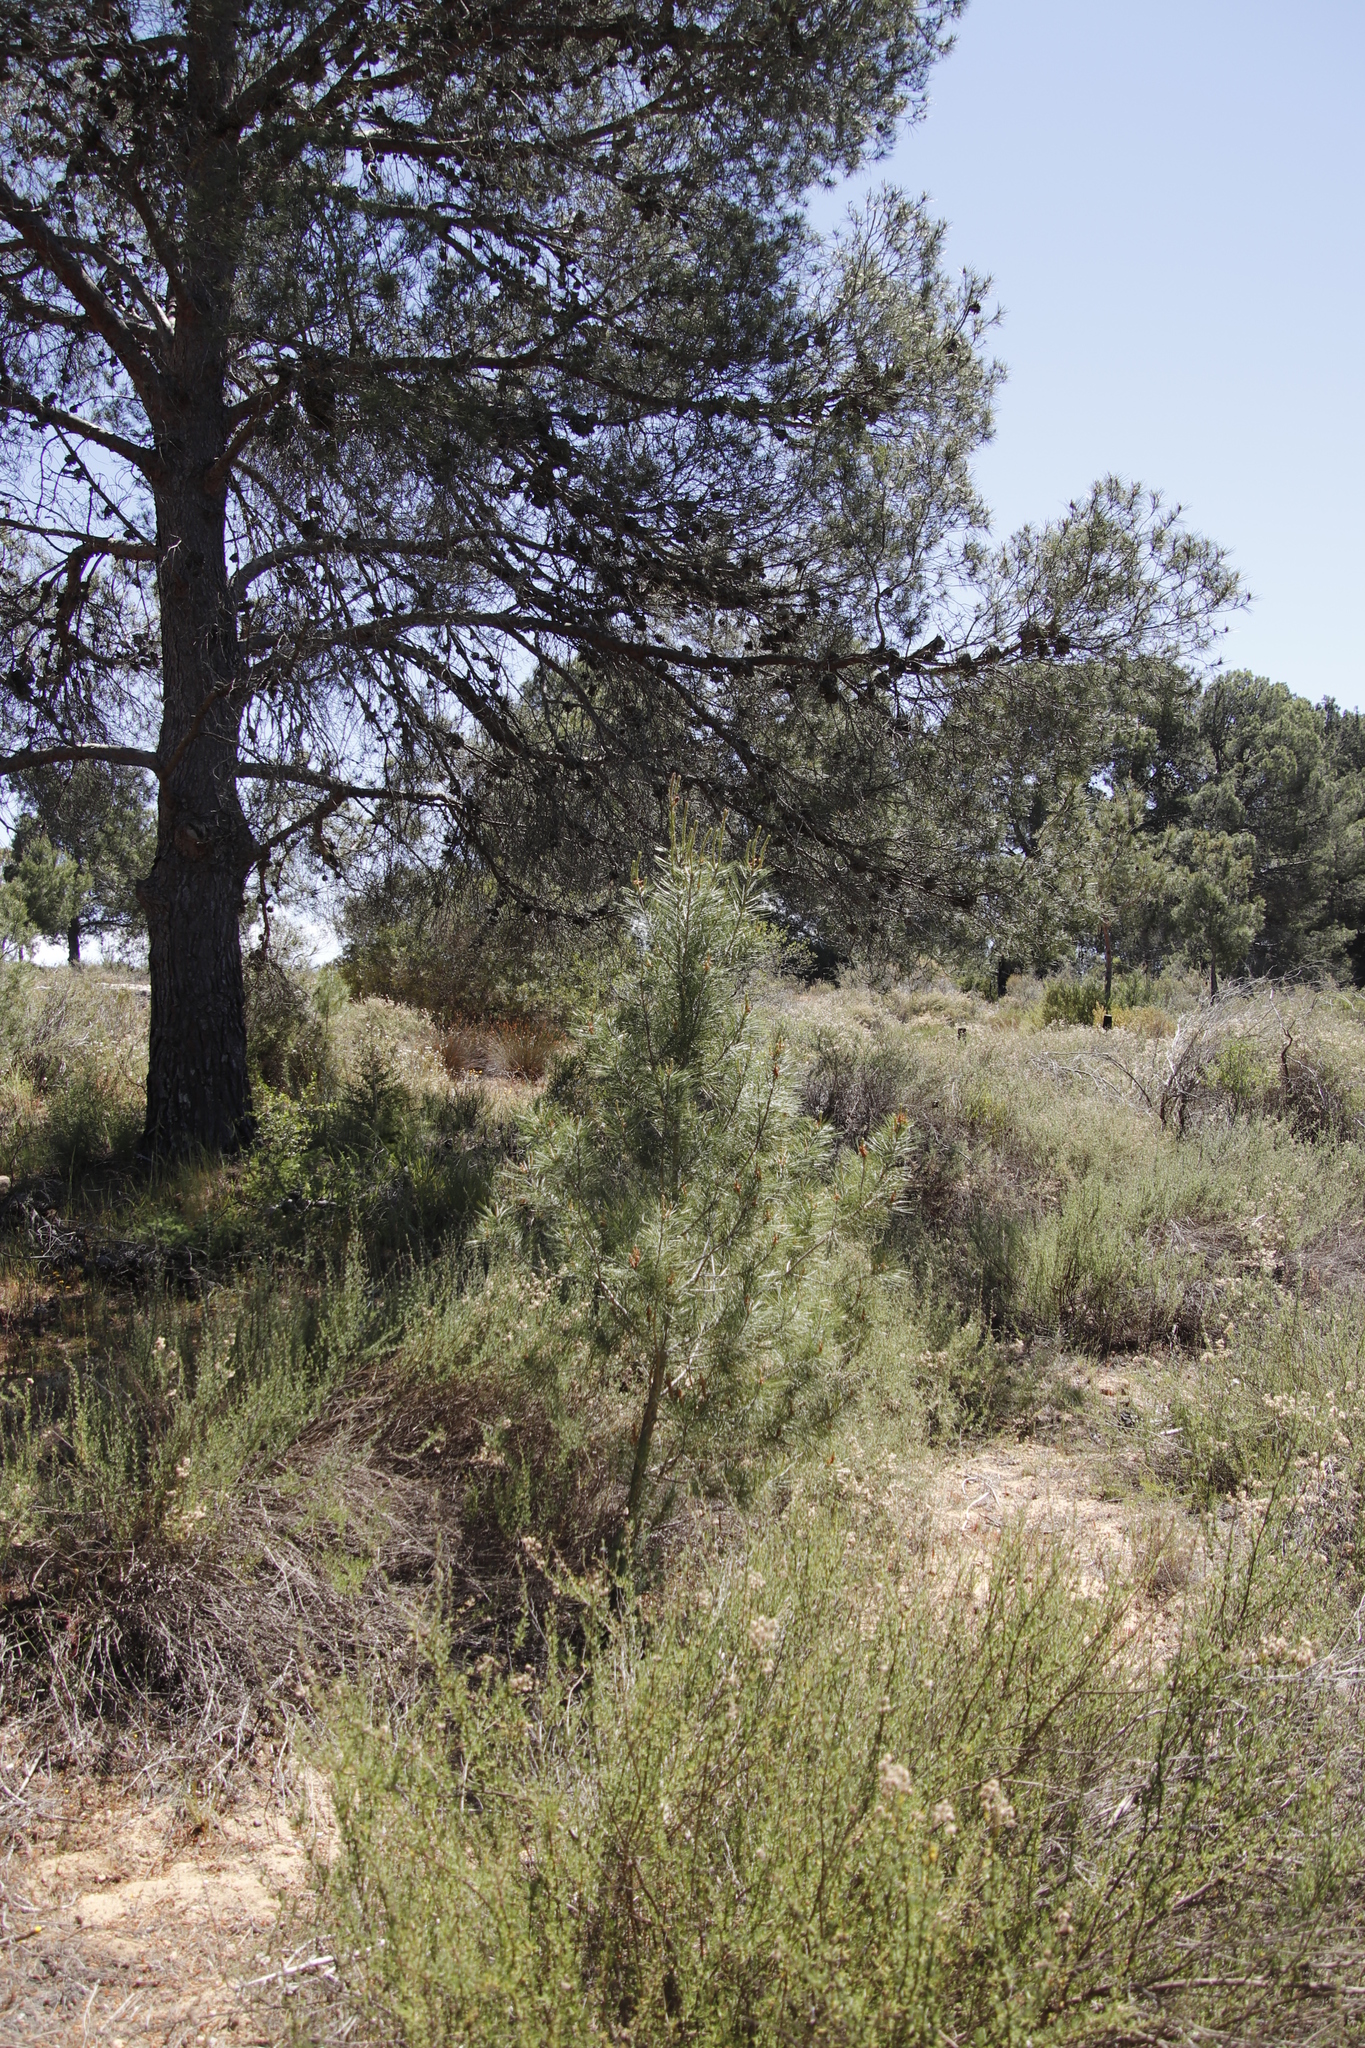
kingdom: Plantae
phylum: Tracheophyta
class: Pinopsida
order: Pinales
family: Pinaceae
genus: Pinus
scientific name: Pinus pinaster
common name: Maritime pine
